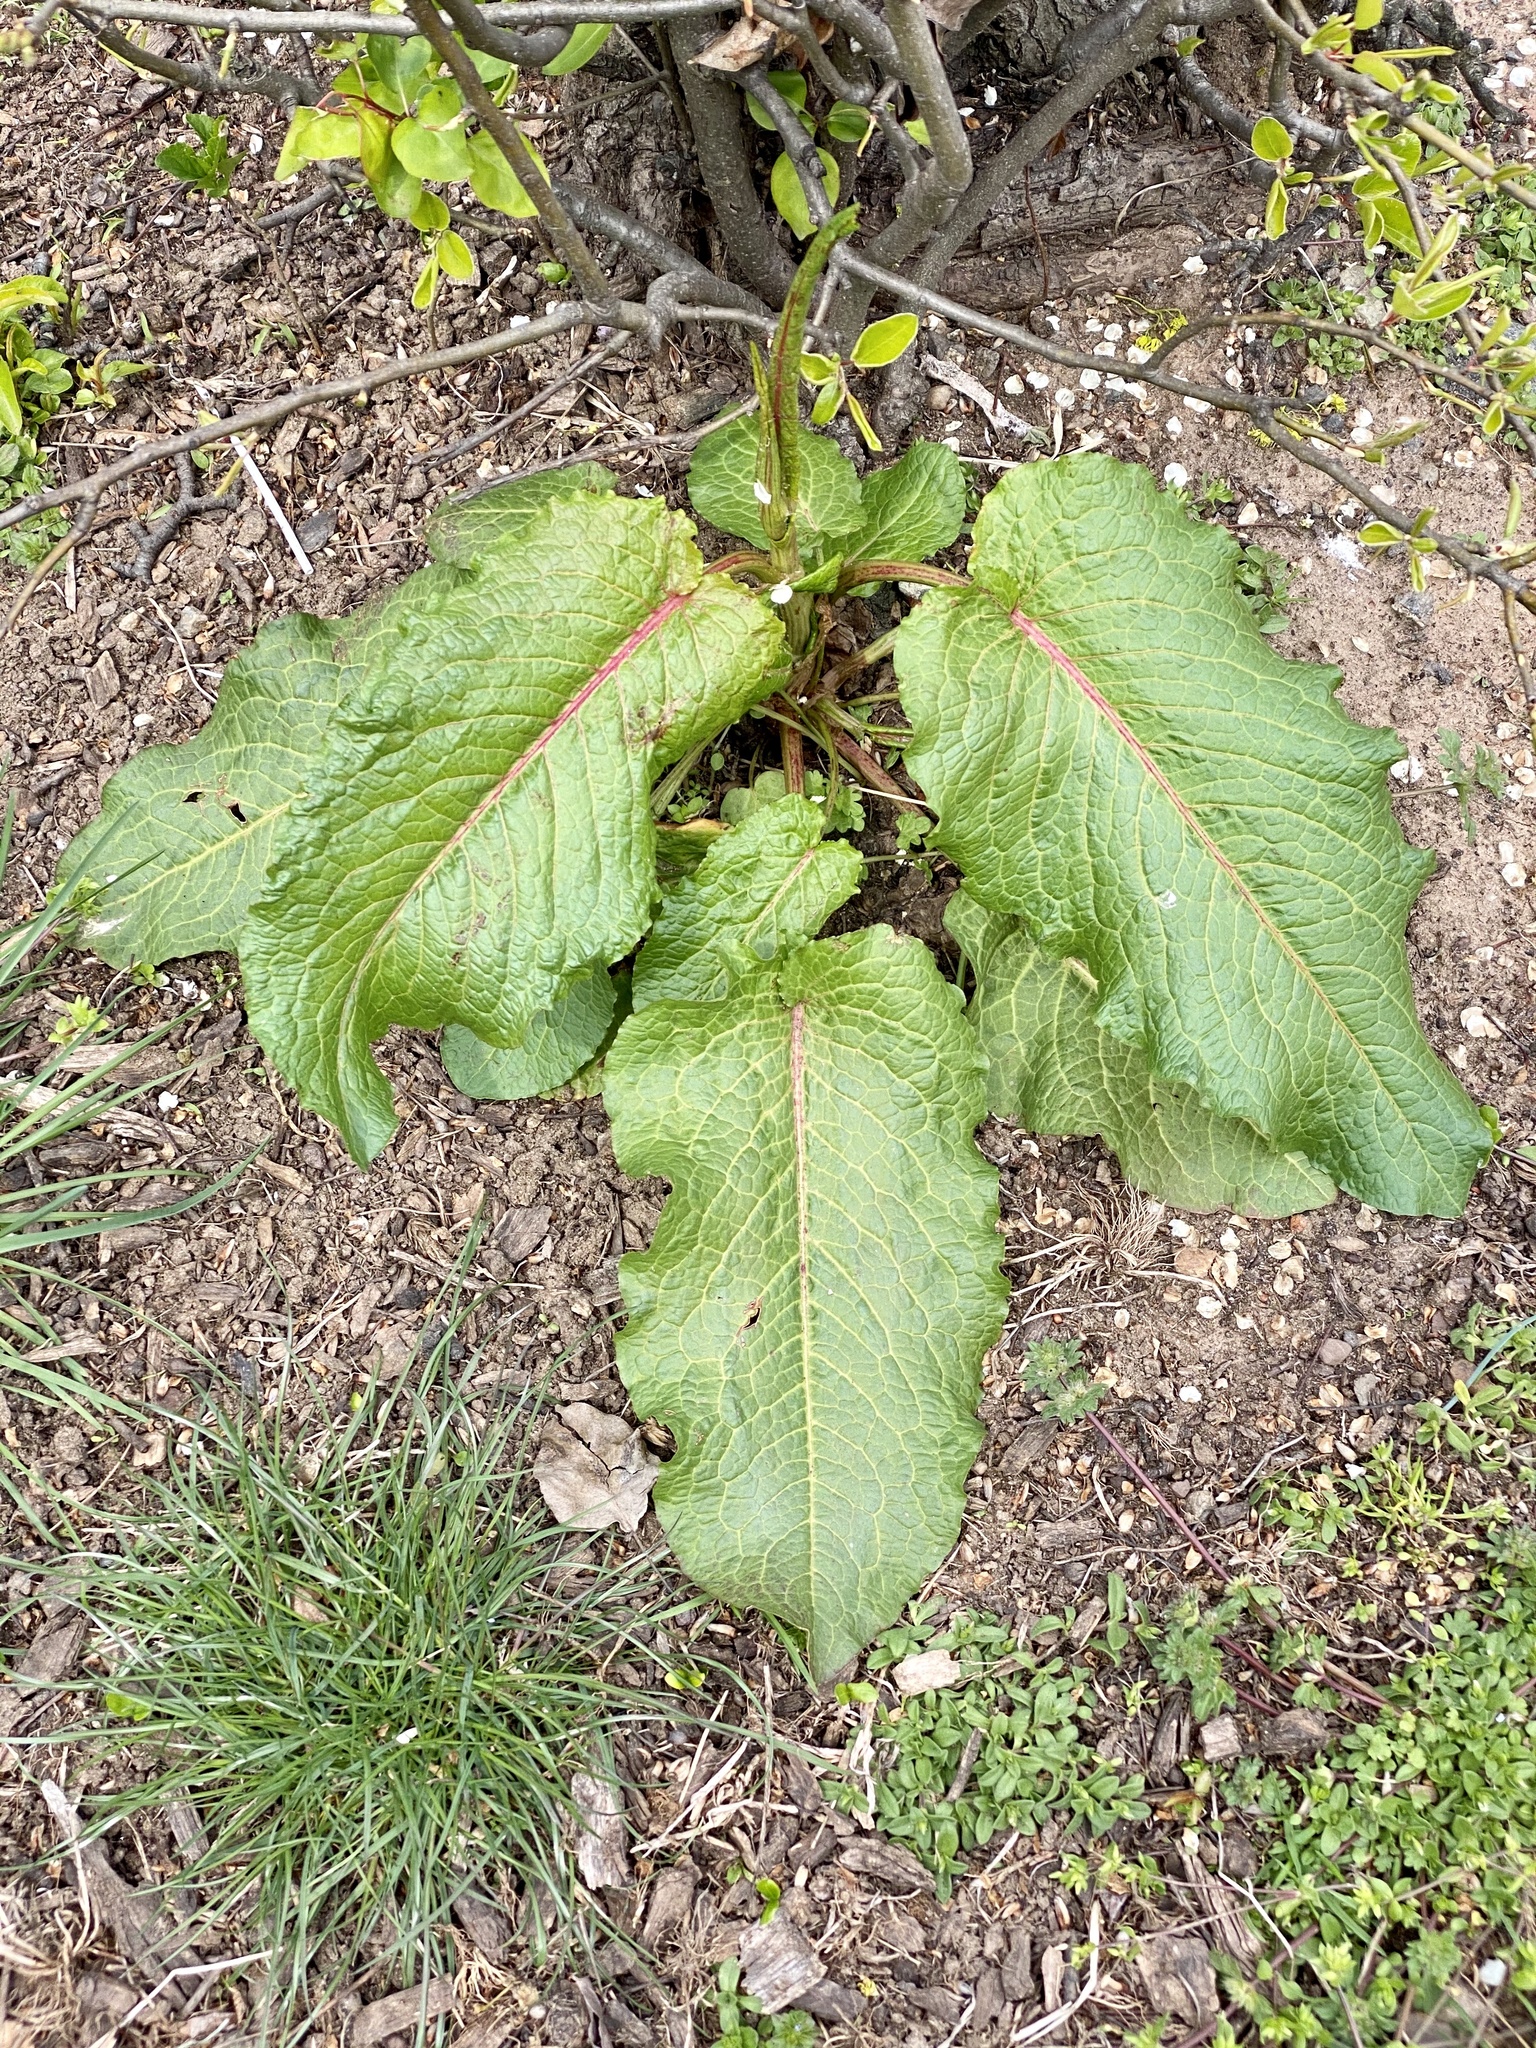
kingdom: Plantae
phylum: Tracheophyta
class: Magnoliopsida
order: Caryophyllales
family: Polygonaceae
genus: Rumex
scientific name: Rumex obtusifolius
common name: Bitter dock
